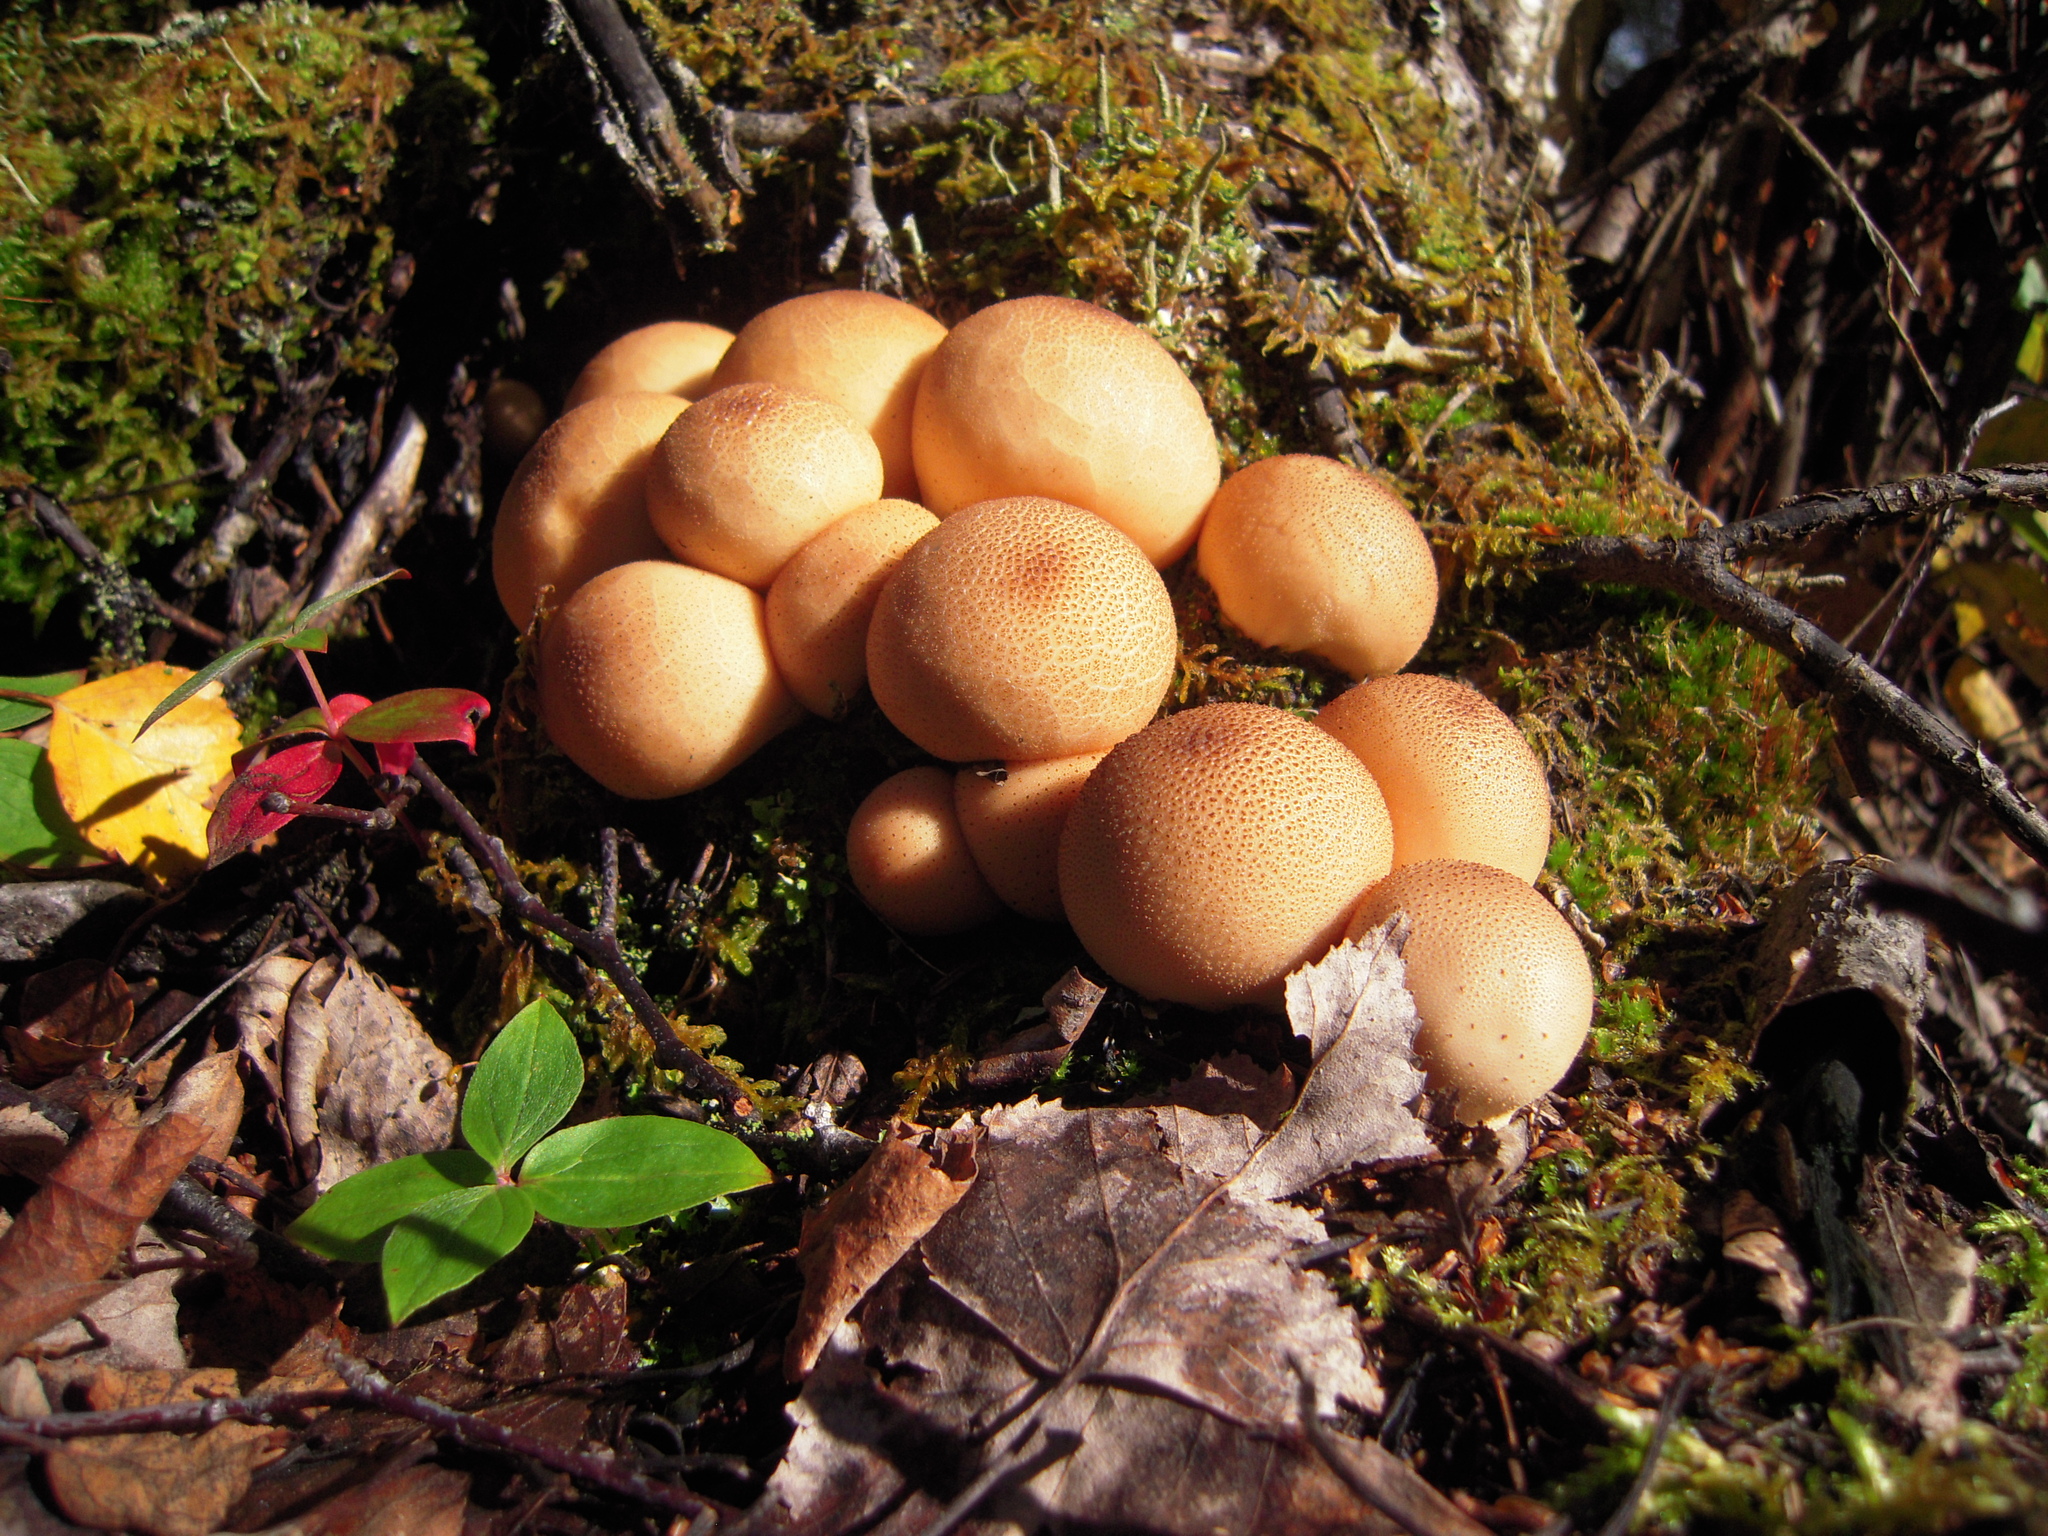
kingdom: Fungi
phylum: Basidiomycota
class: Agaricomycetes
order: Agaricales
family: Lycoperdaceae
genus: Apioperdon
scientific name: Apioperdon pyriforme
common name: Pear-shaped puffball
